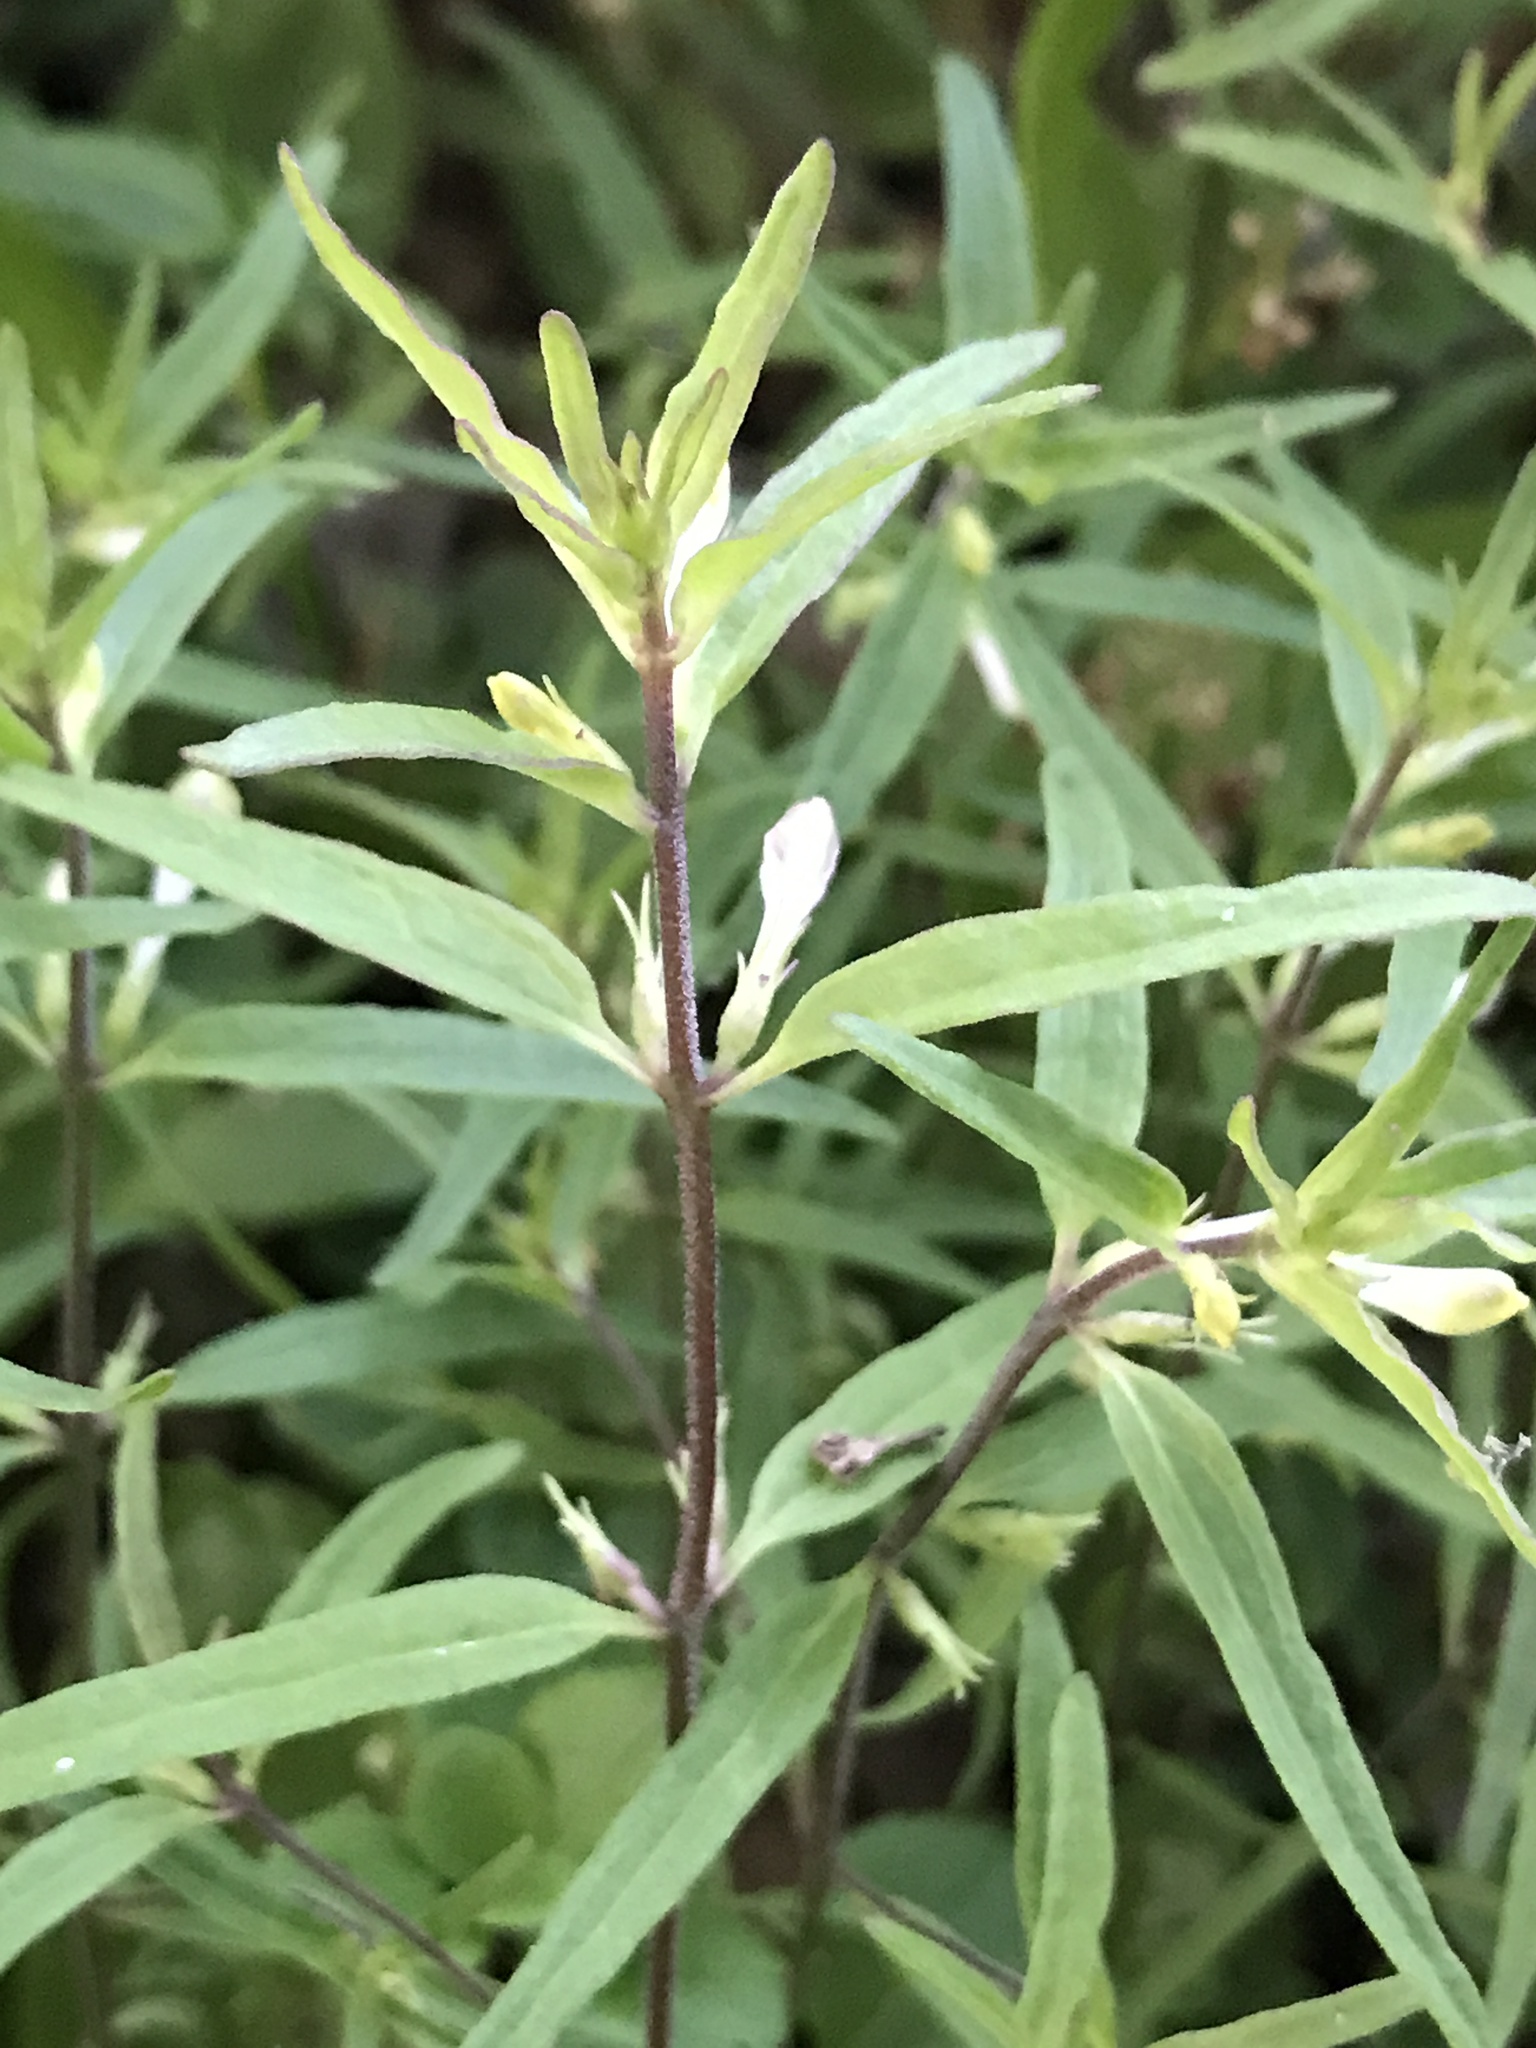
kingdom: Plantae
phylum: Tracheophyta
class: Magnoliopsida
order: Lamiales
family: Orobanchaceae
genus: Melampyrum
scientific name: Melampyrum lineare
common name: American cow-wheat
